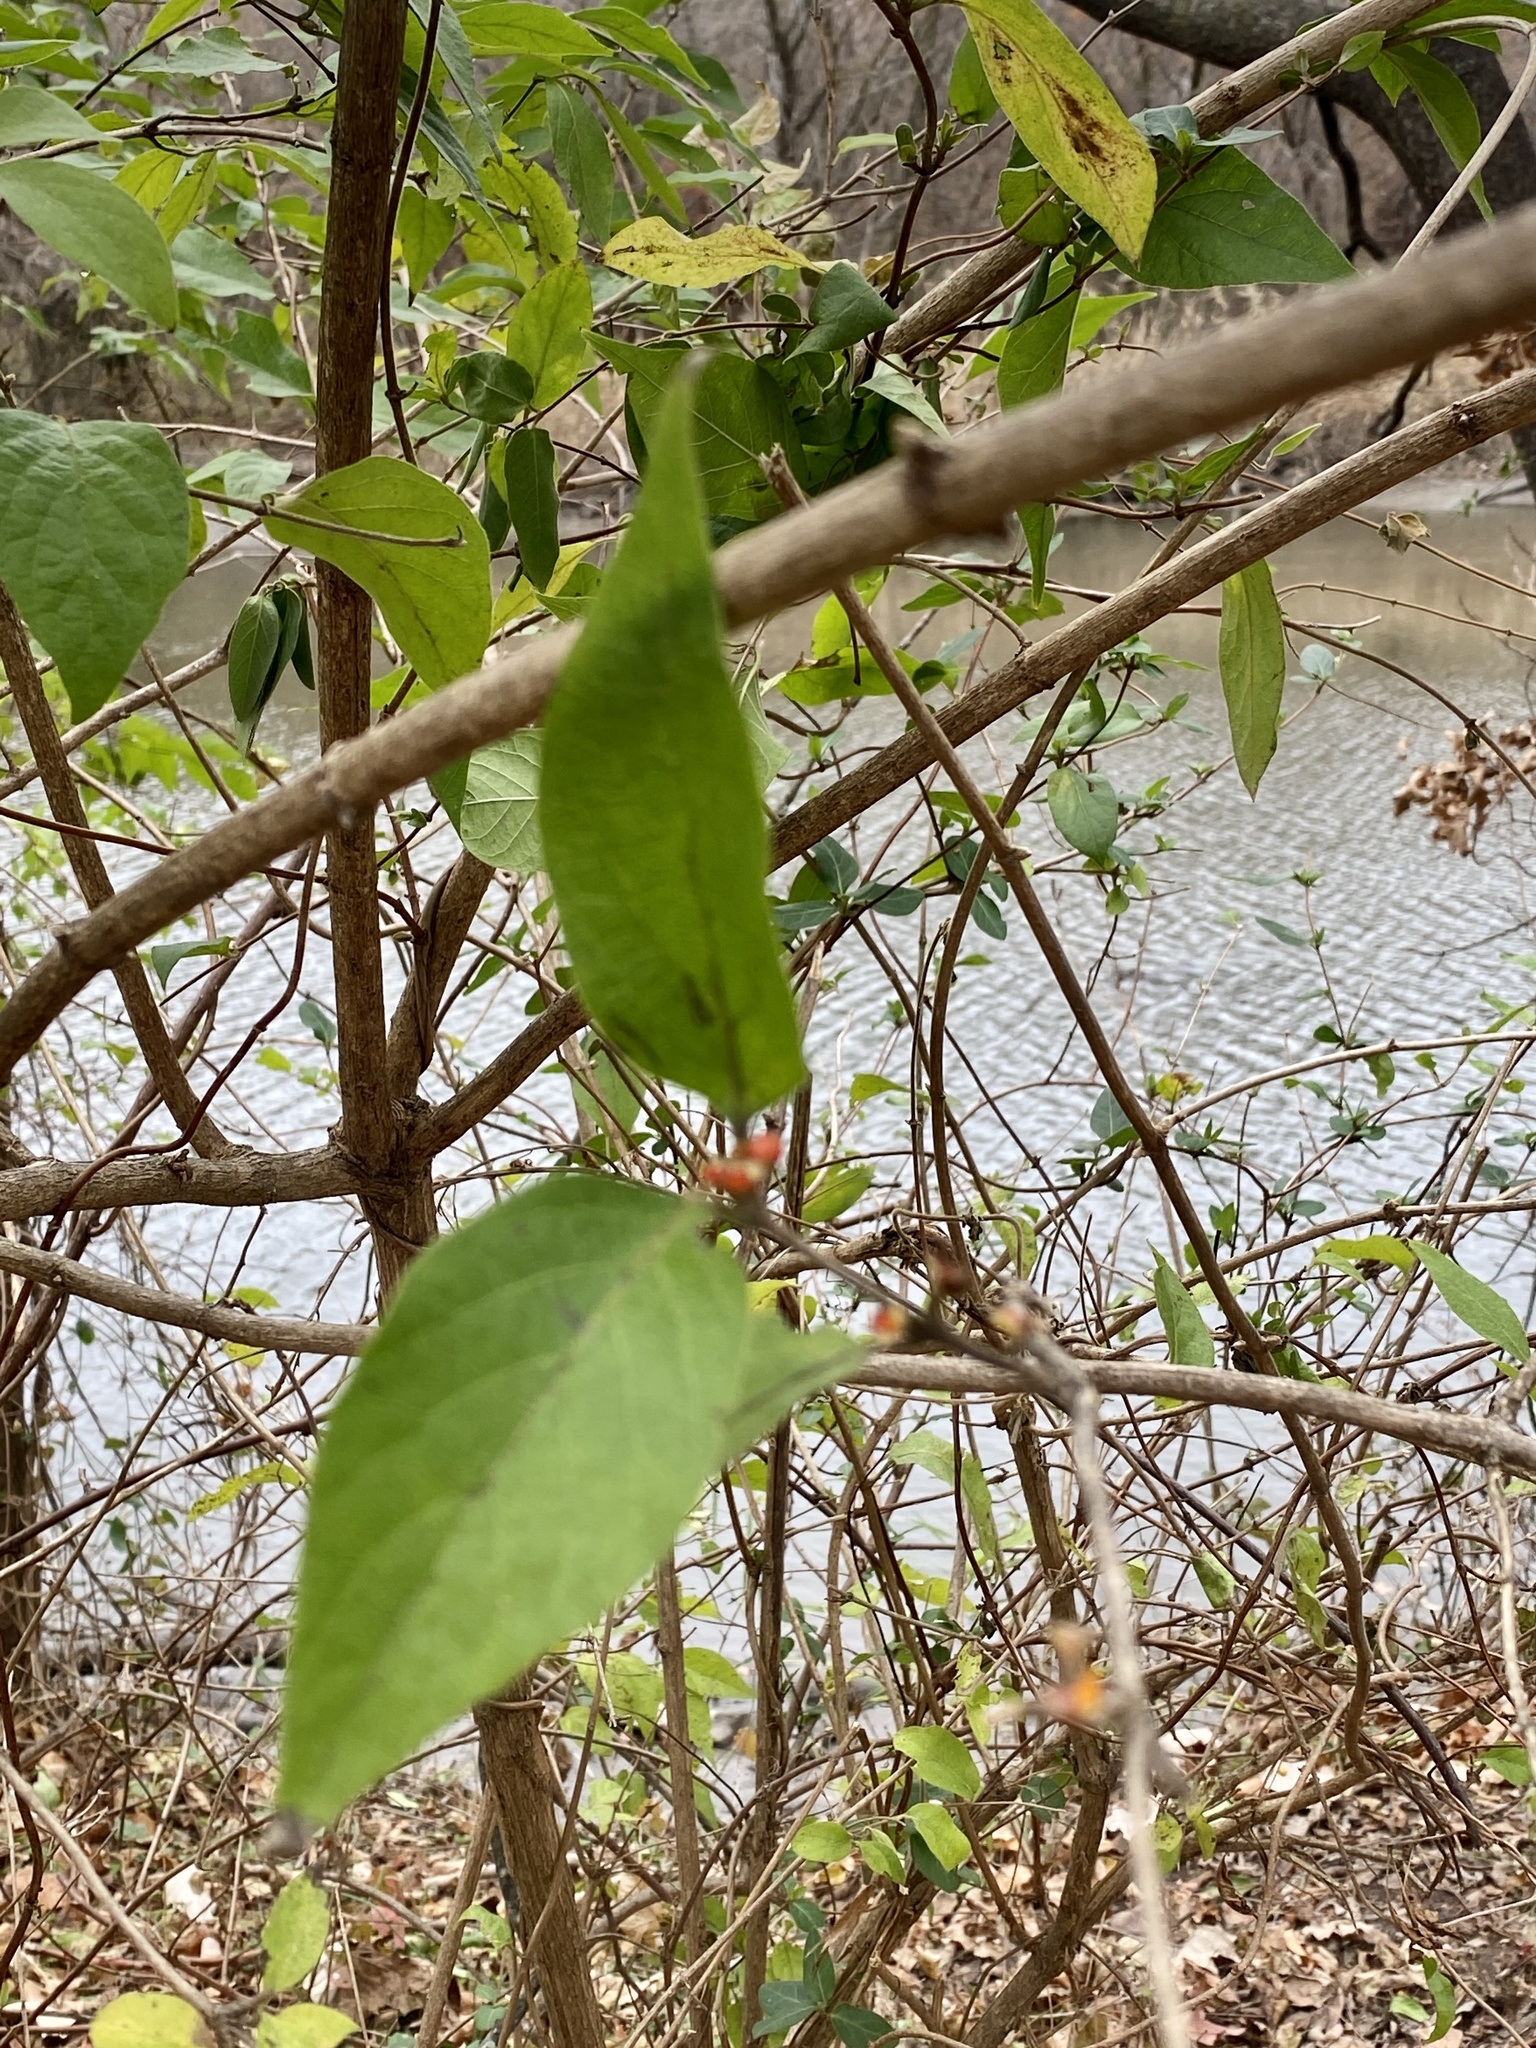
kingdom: Plantae
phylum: Tracheophyta
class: Magnoliopsida
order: Dipsacales
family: Caprifoliaceae
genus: Lonicera
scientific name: Lonicera maackii
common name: Amur honeysuckle
